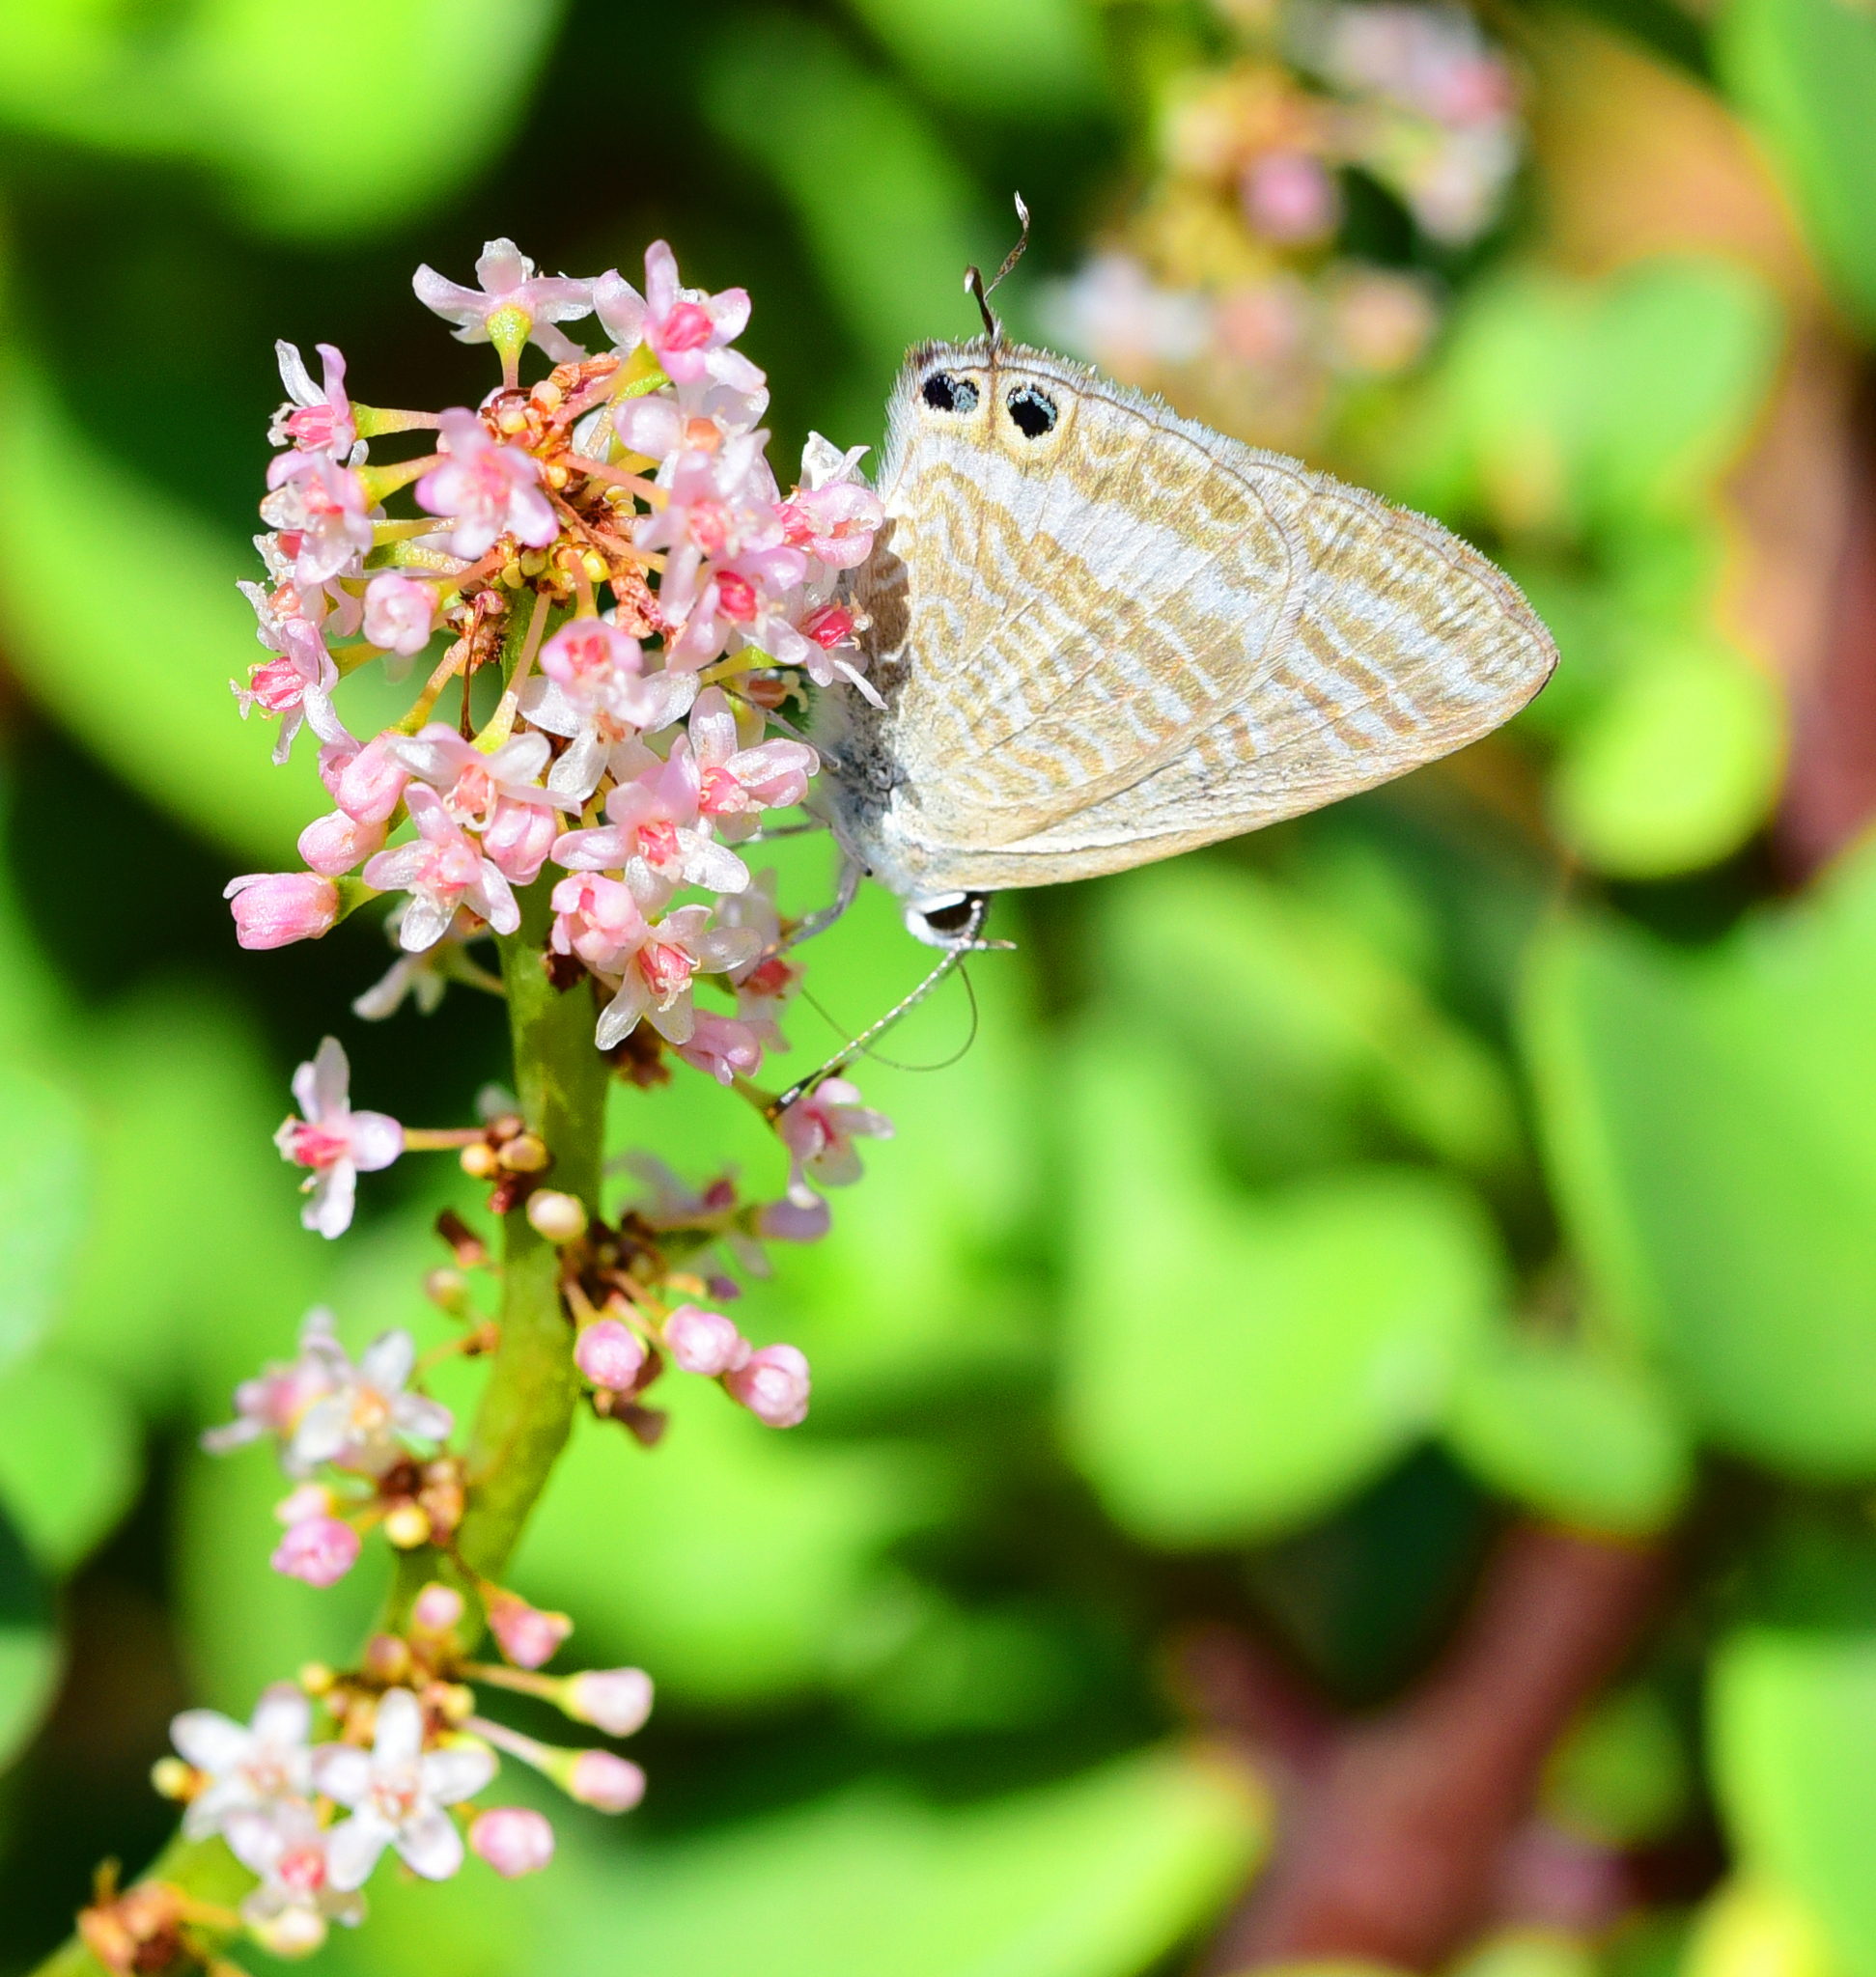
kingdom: Animalia
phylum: Arthropoda
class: Insecta
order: Lepidoptera
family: Lycaenidae
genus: Lampides
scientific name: Lampides boeticus
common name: Long-tailed blue
